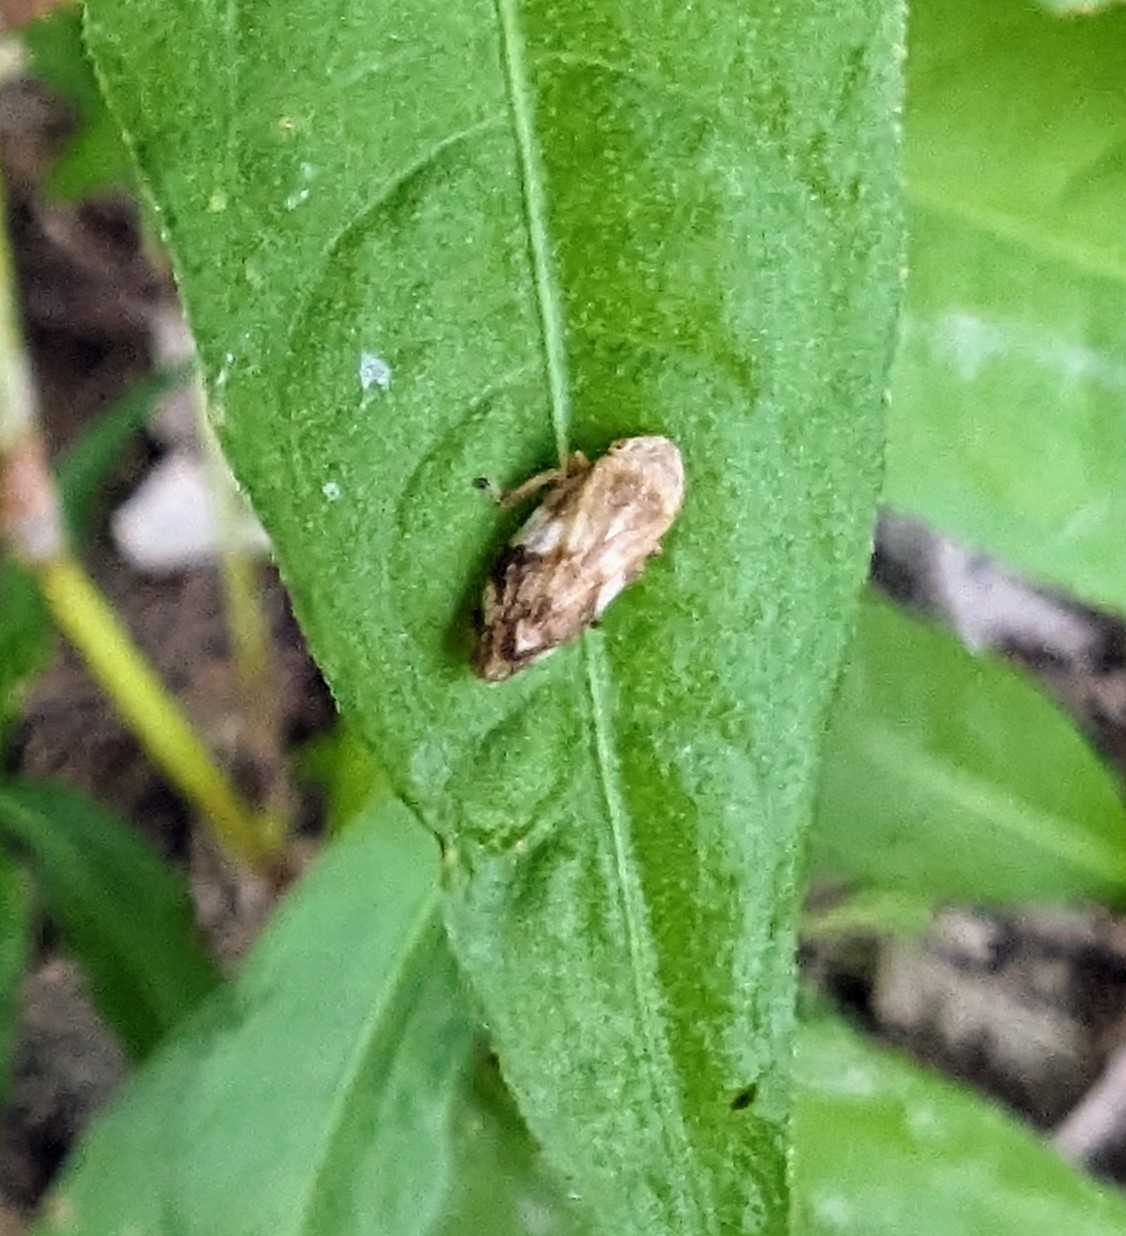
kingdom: Animalia
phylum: Arthropoda
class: Insecta
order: Hemiptera
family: Aphrophoridae
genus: Philaenus
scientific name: Philaenus spumarius
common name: Meadow spittlebug
